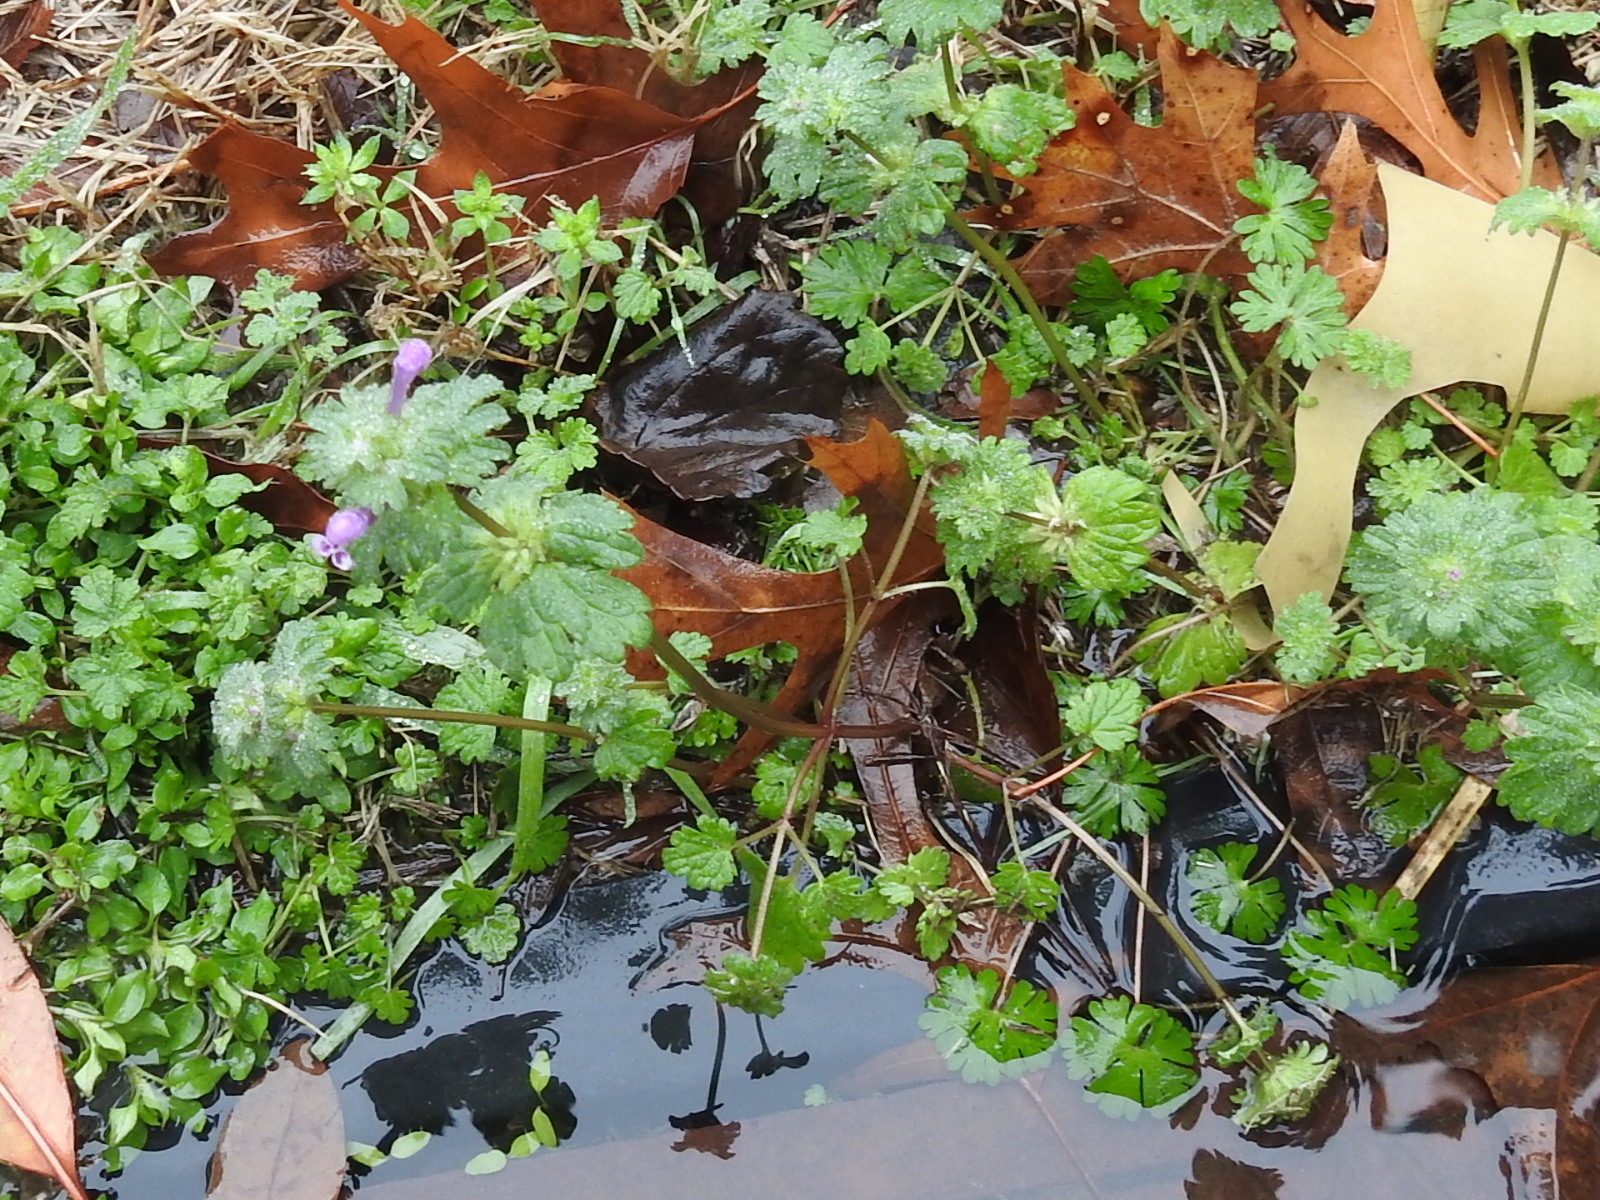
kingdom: Plantae
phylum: Tracheophyta
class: Magnoliopsida
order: Lamiales
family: Lamiaceae
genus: Lamium
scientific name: Lamium amplexicaule
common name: Henbit dead-nettle
